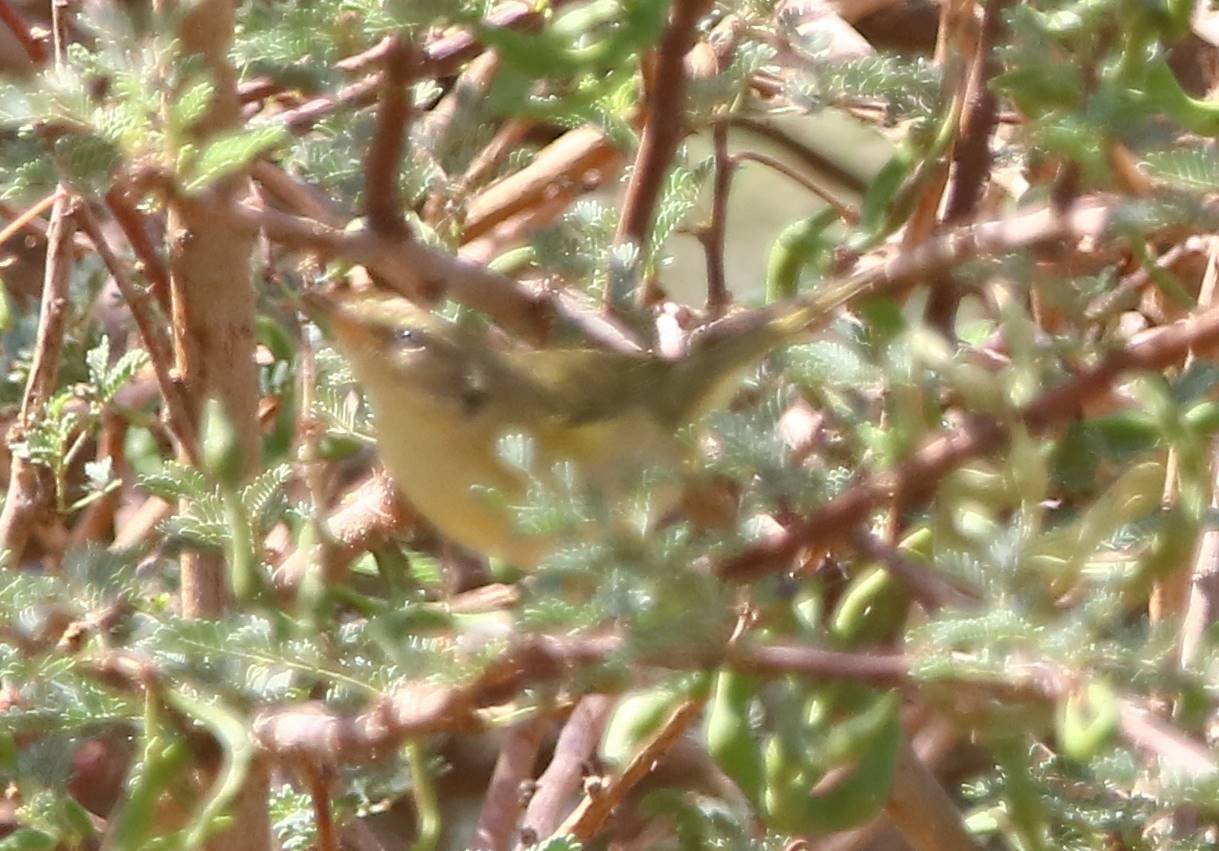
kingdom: Animalia
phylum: Chordata
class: Aves
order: Passeriformes
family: Phylloscopidae
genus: Phylloscopus
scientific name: Phylloscopus trochilus
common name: Willow warbler
